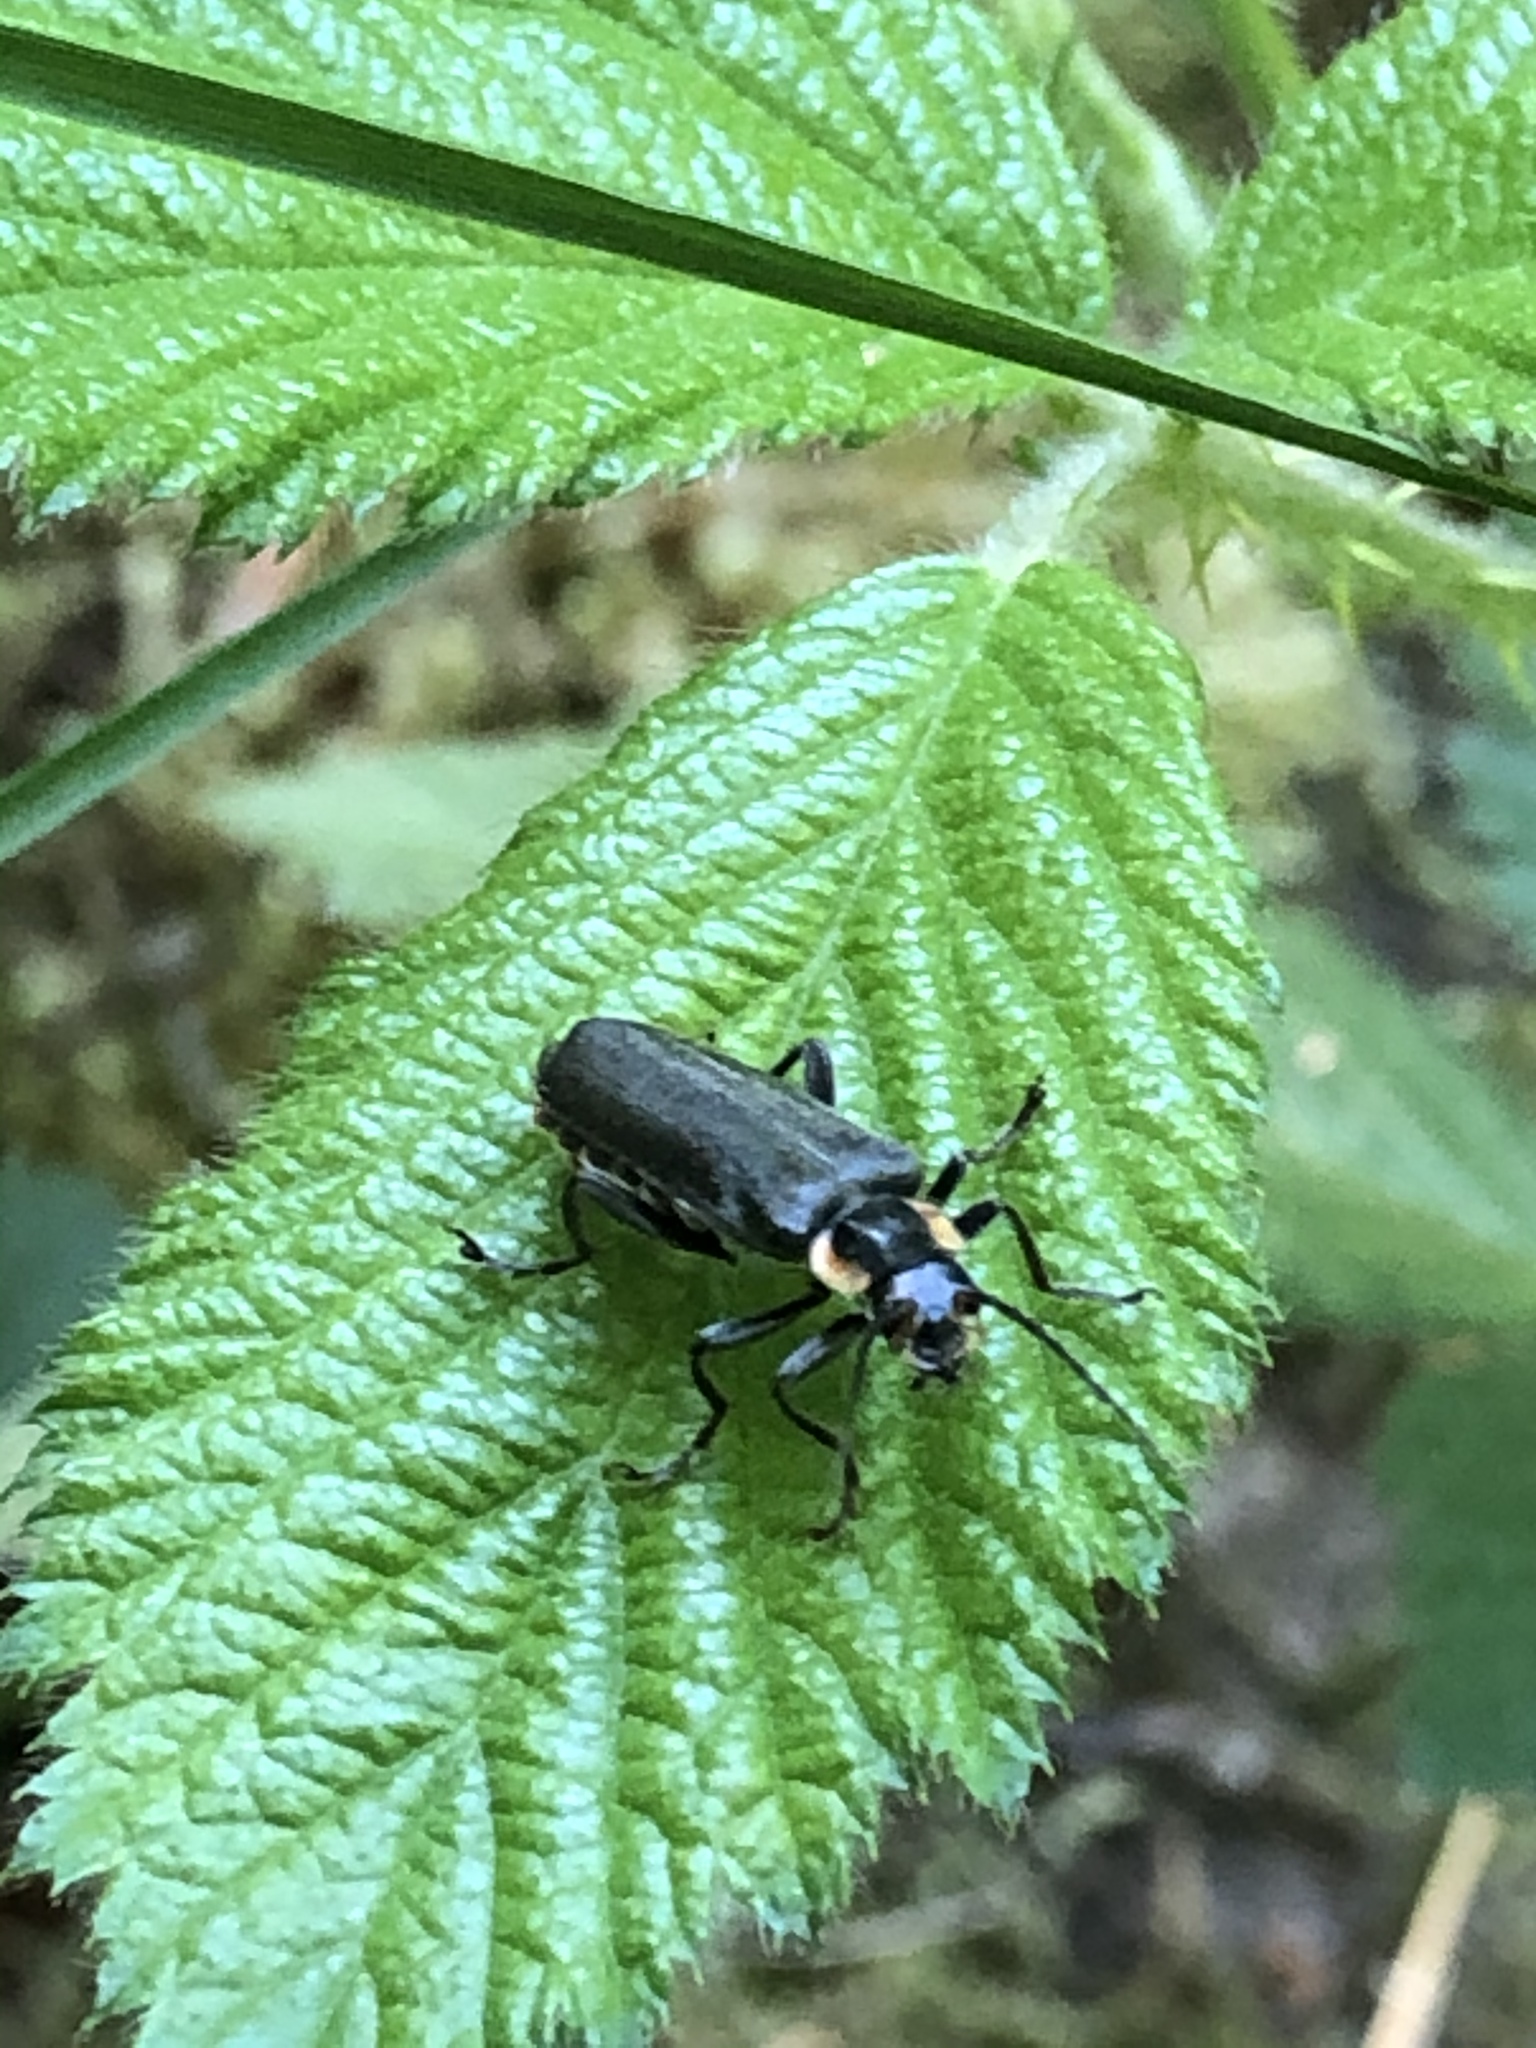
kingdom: Animalia
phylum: Arthropoda
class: Insecta
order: Coleoptera
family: Cantharidae
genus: Cantharis
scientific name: Cantharis
